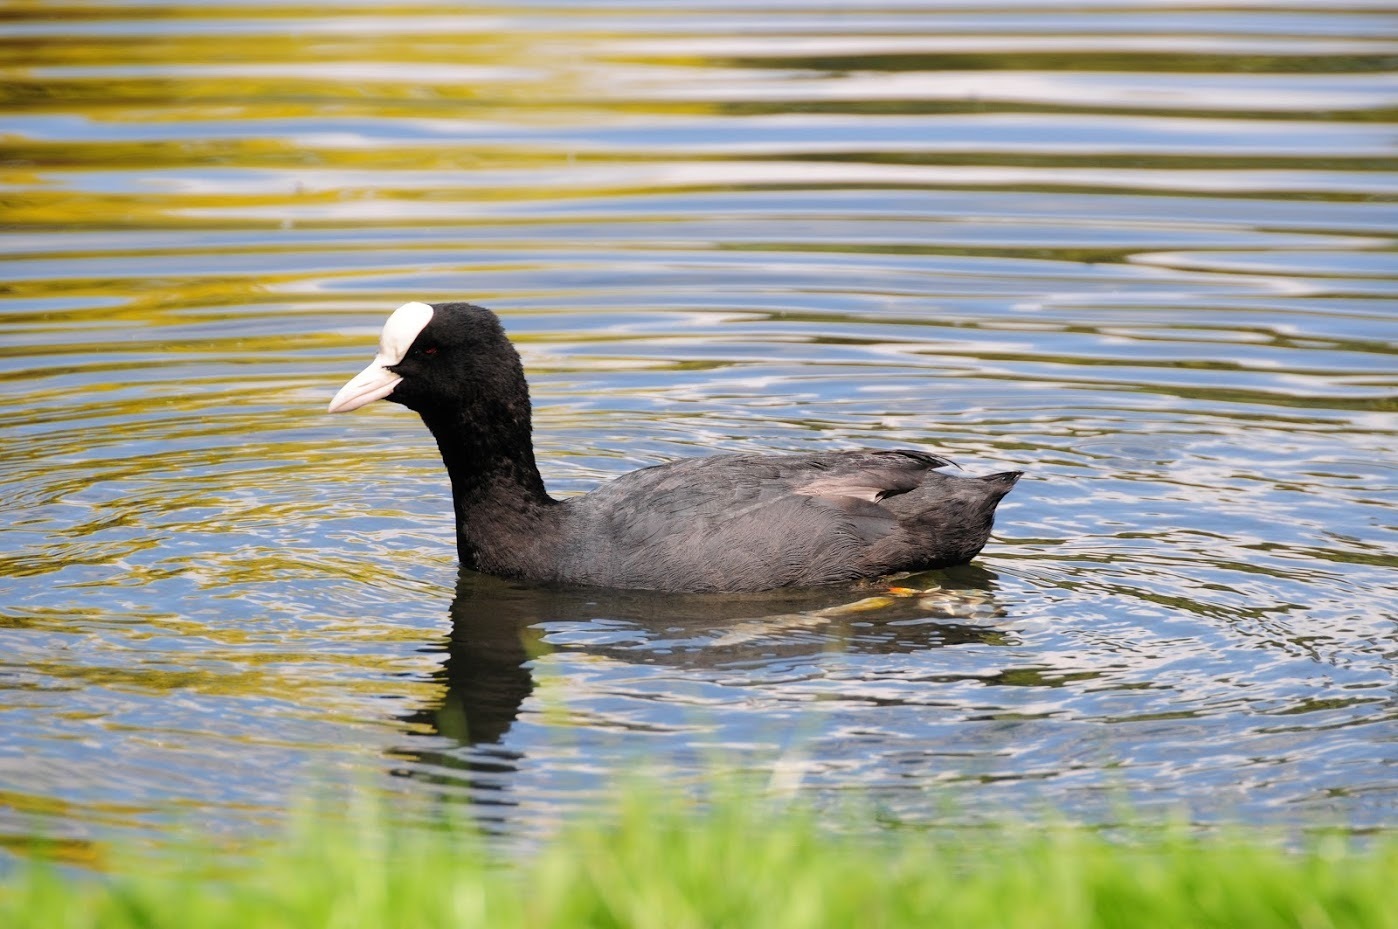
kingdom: Animalia
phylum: Chordata
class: Aves
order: Gruiformes
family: Rallidae
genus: Fulica
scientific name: Fulica atra
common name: Eurasian coot
